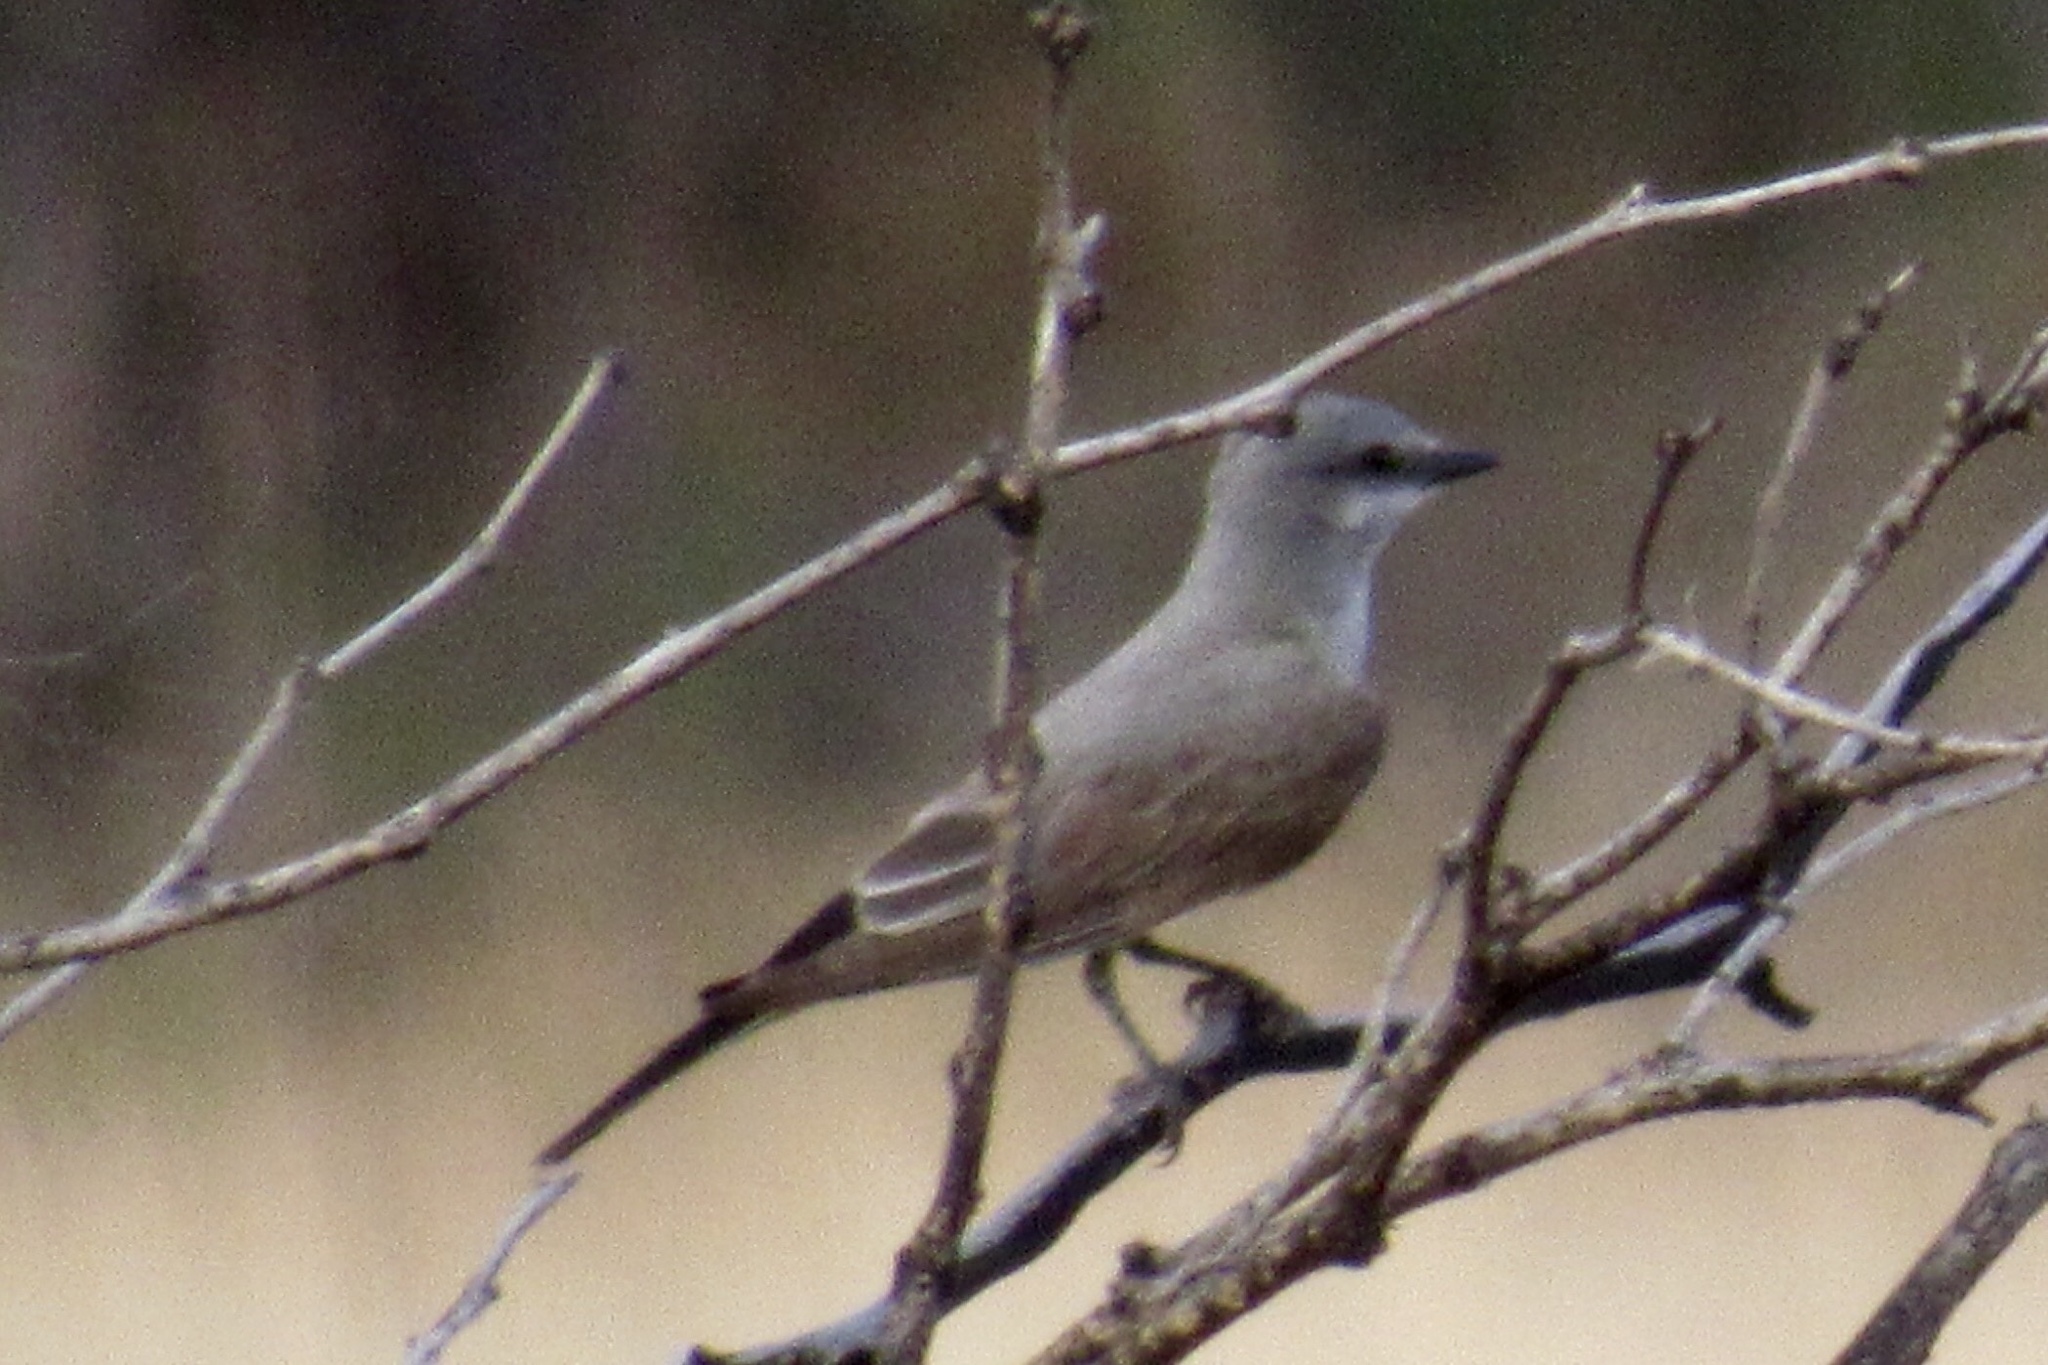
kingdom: Animalia
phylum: Chordata
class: Aves
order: Passeriformes
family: Tyrannidae
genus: Tyrannus
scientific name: Tyrannus verticalis
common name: Western kingbird
